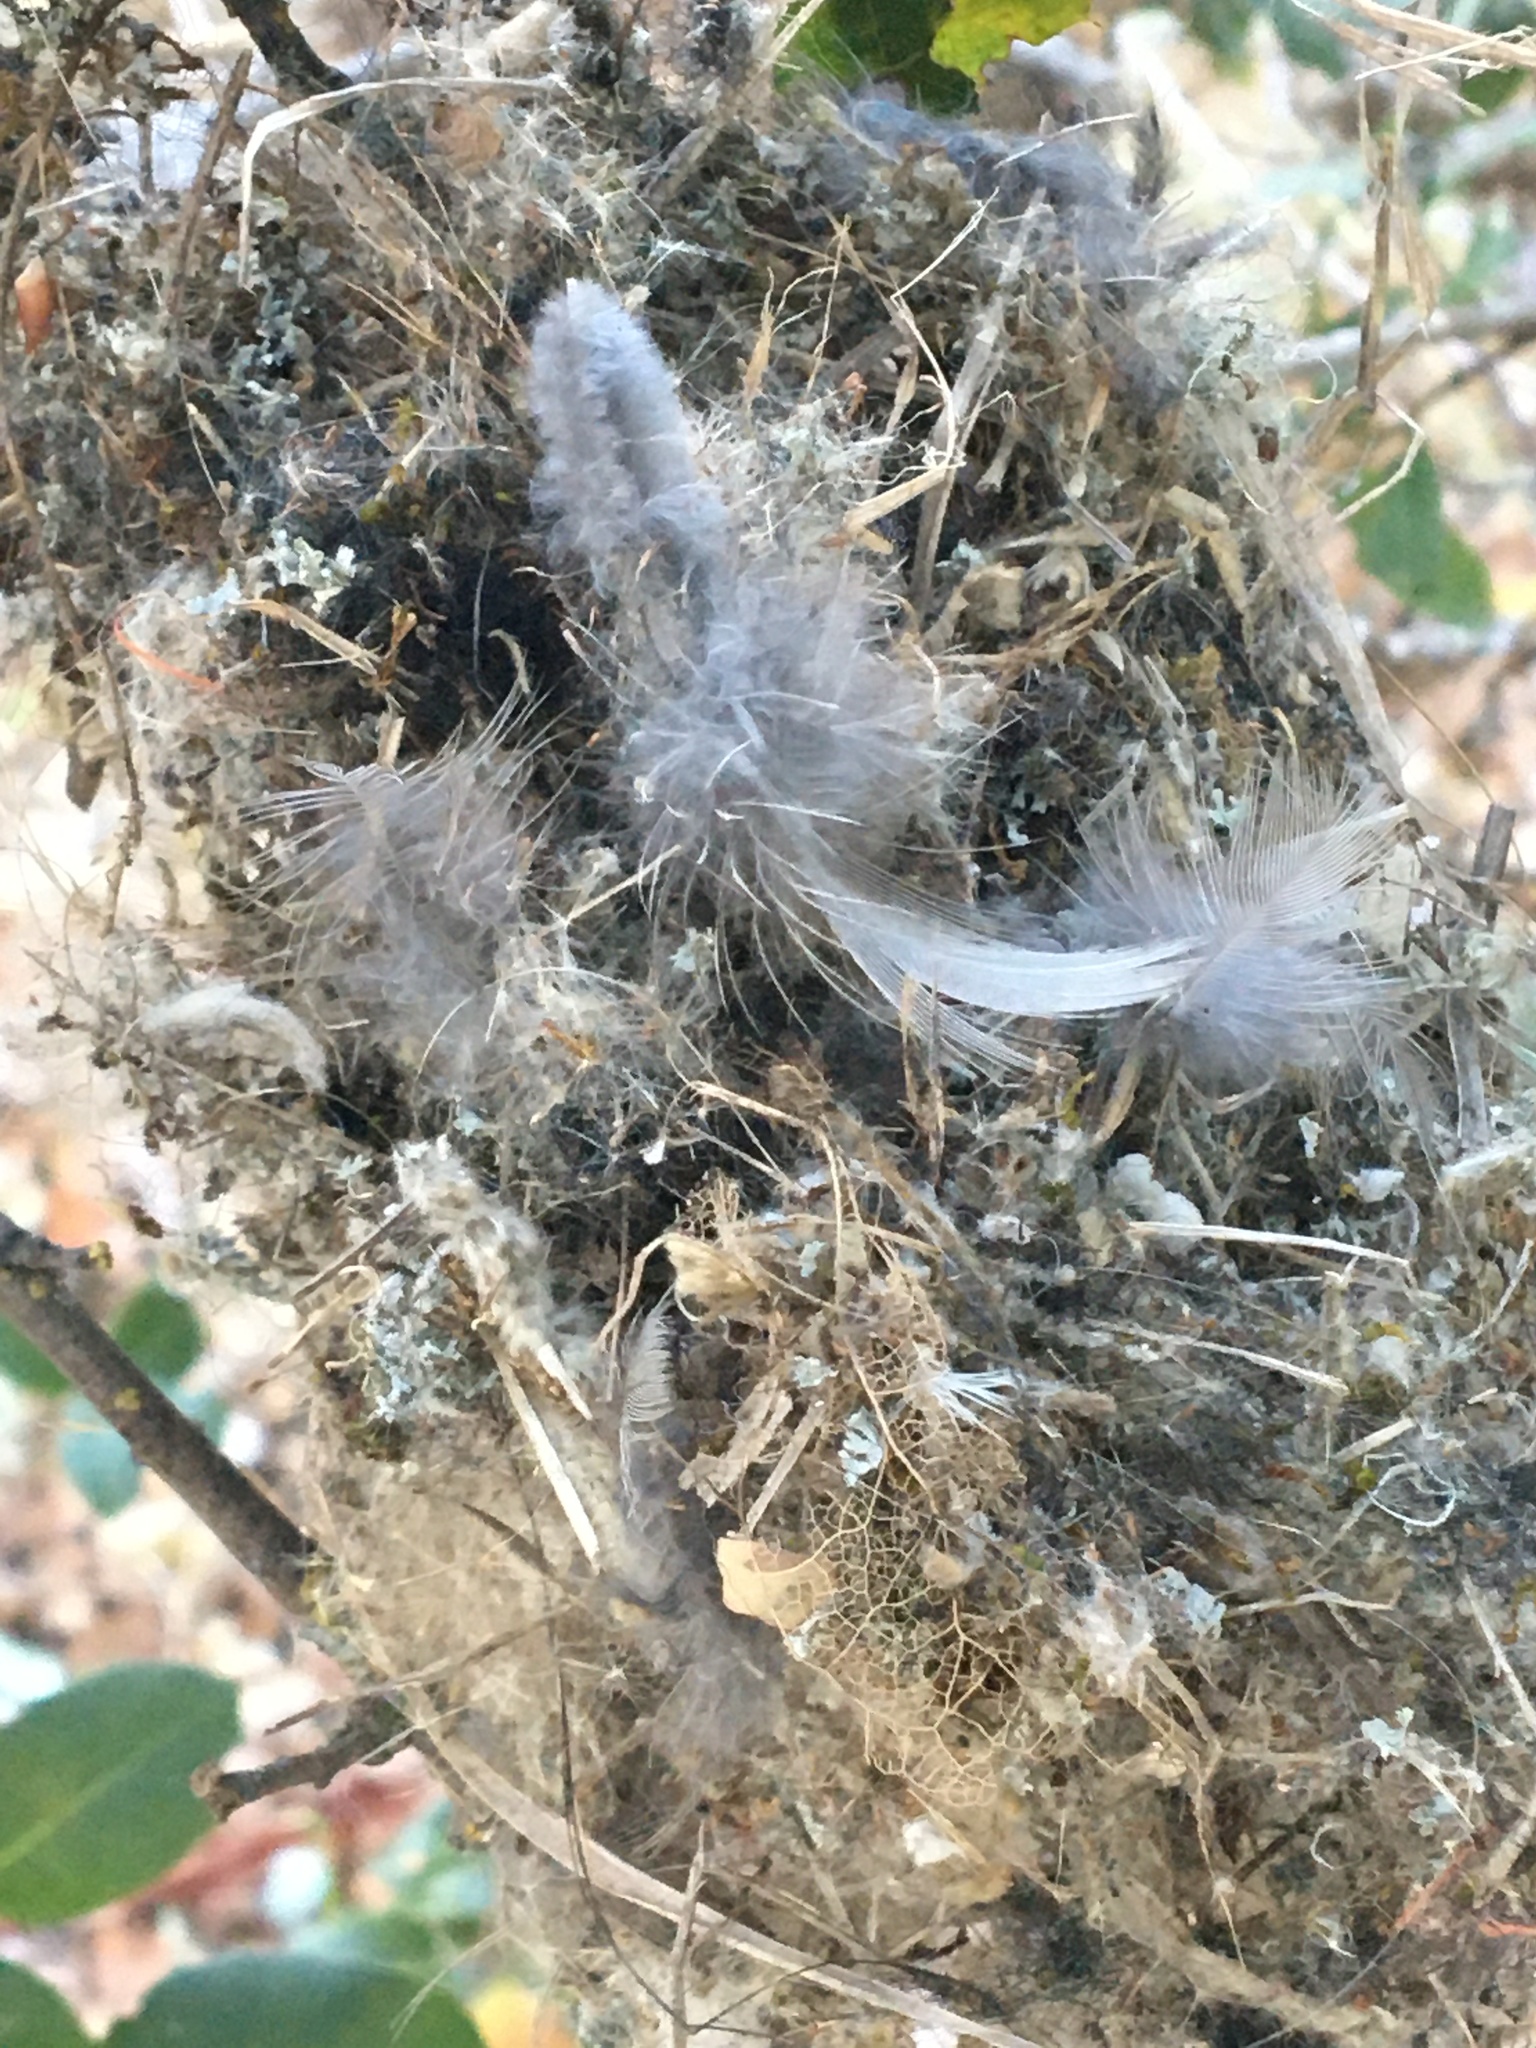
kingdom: Animalia
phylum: Chordata
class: Aves
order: Passeriformes
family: Aegithalidae
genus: Psaltriparus
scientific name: Psaltriparus minimus
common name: American bushtit
